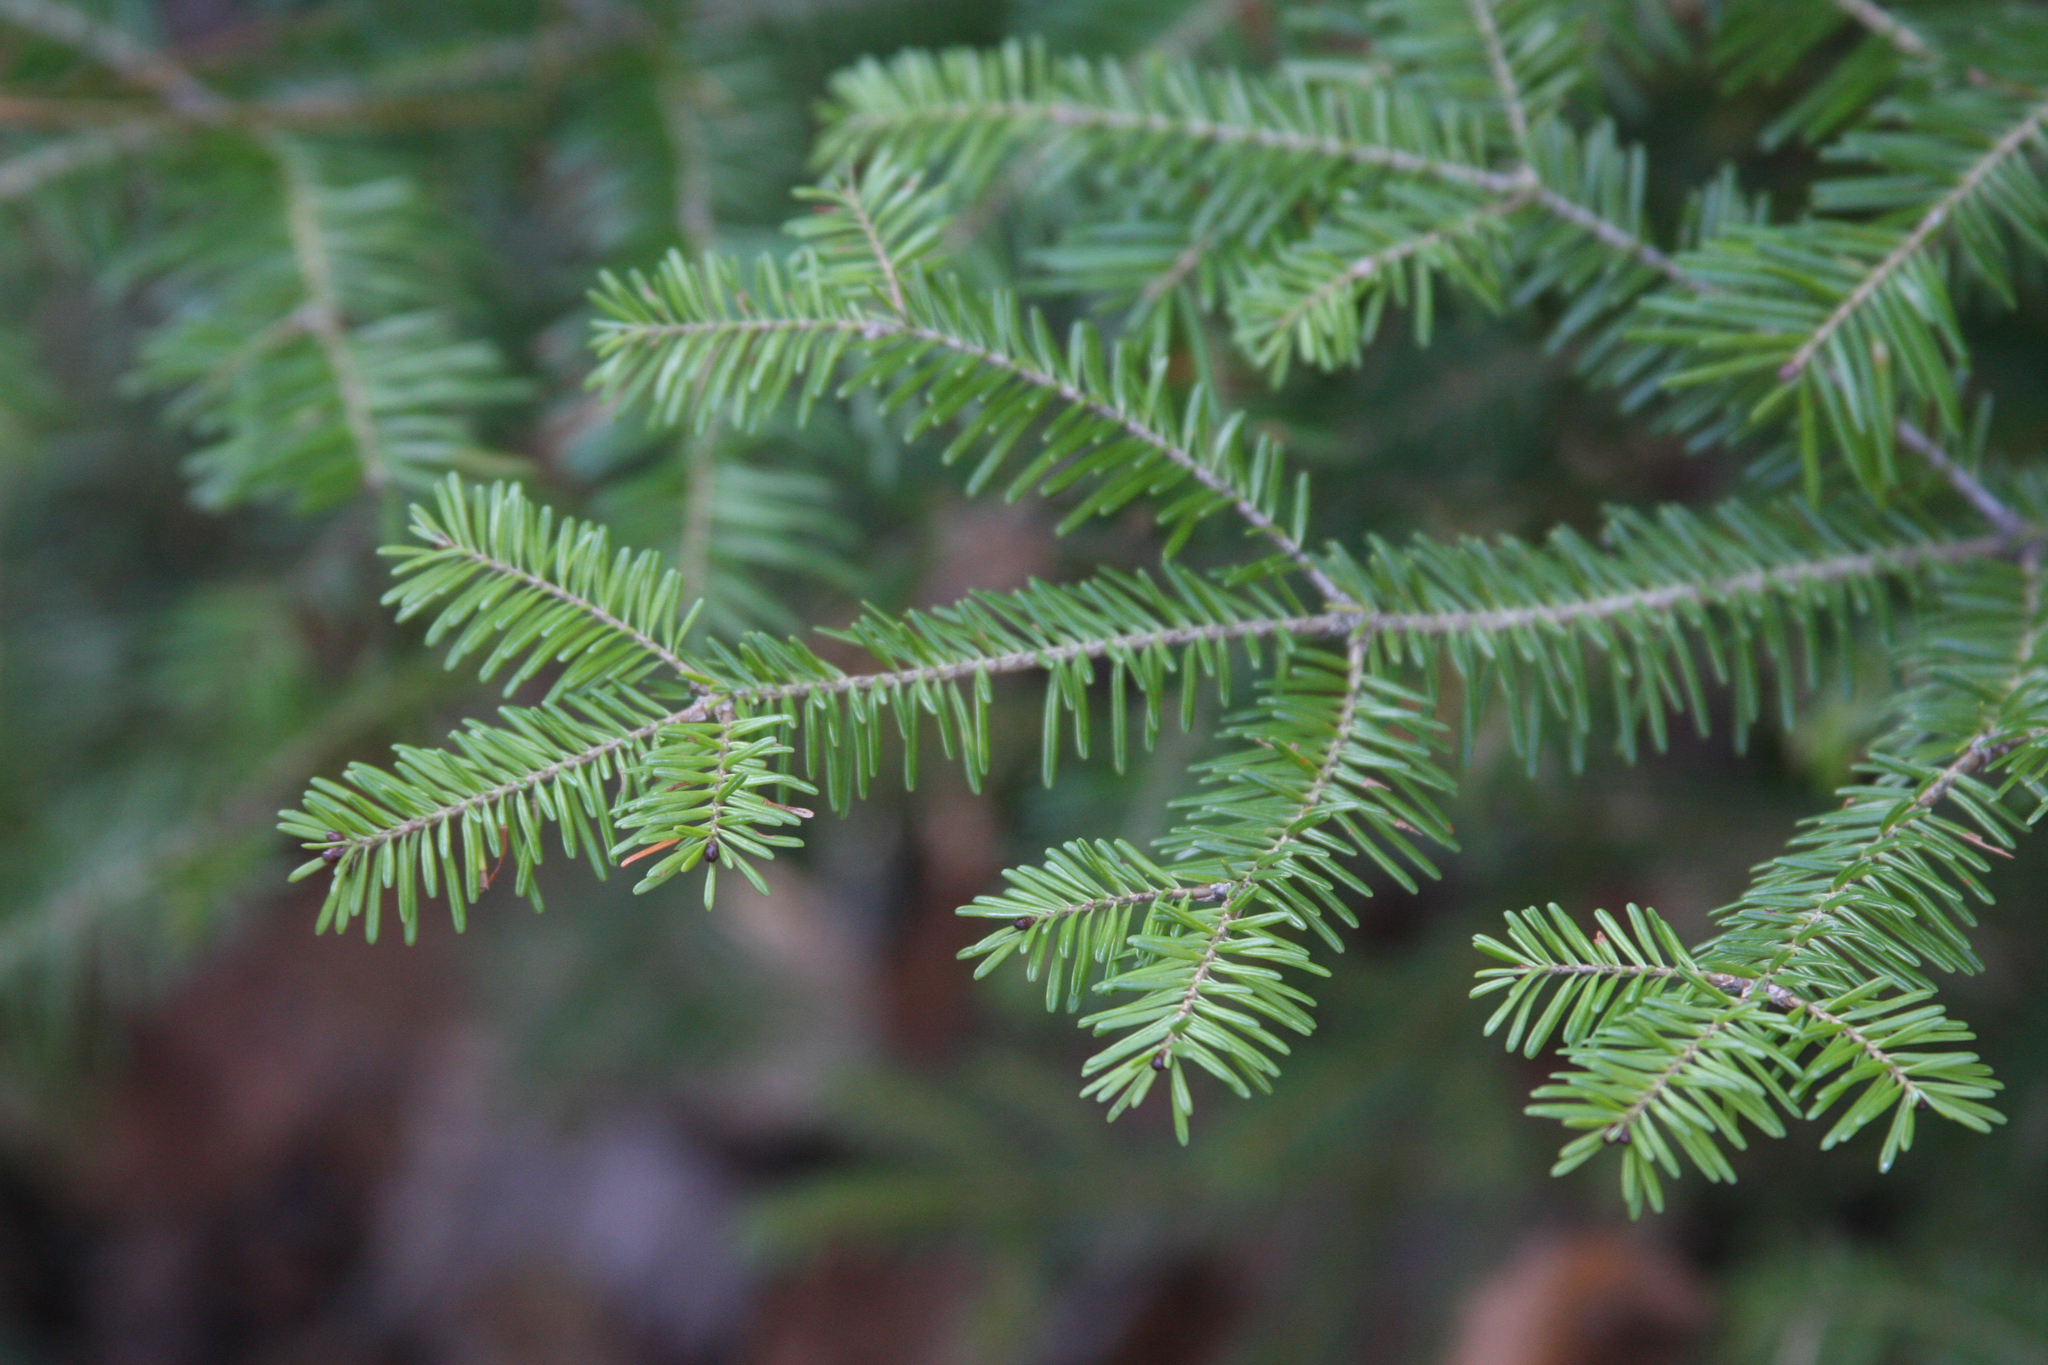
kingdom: Plantae
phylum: Tracheophyta
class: Pinopsida
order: Pinales
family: Pinaceae
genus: Abies
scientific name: Abies balsamea
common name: Balsam fir
